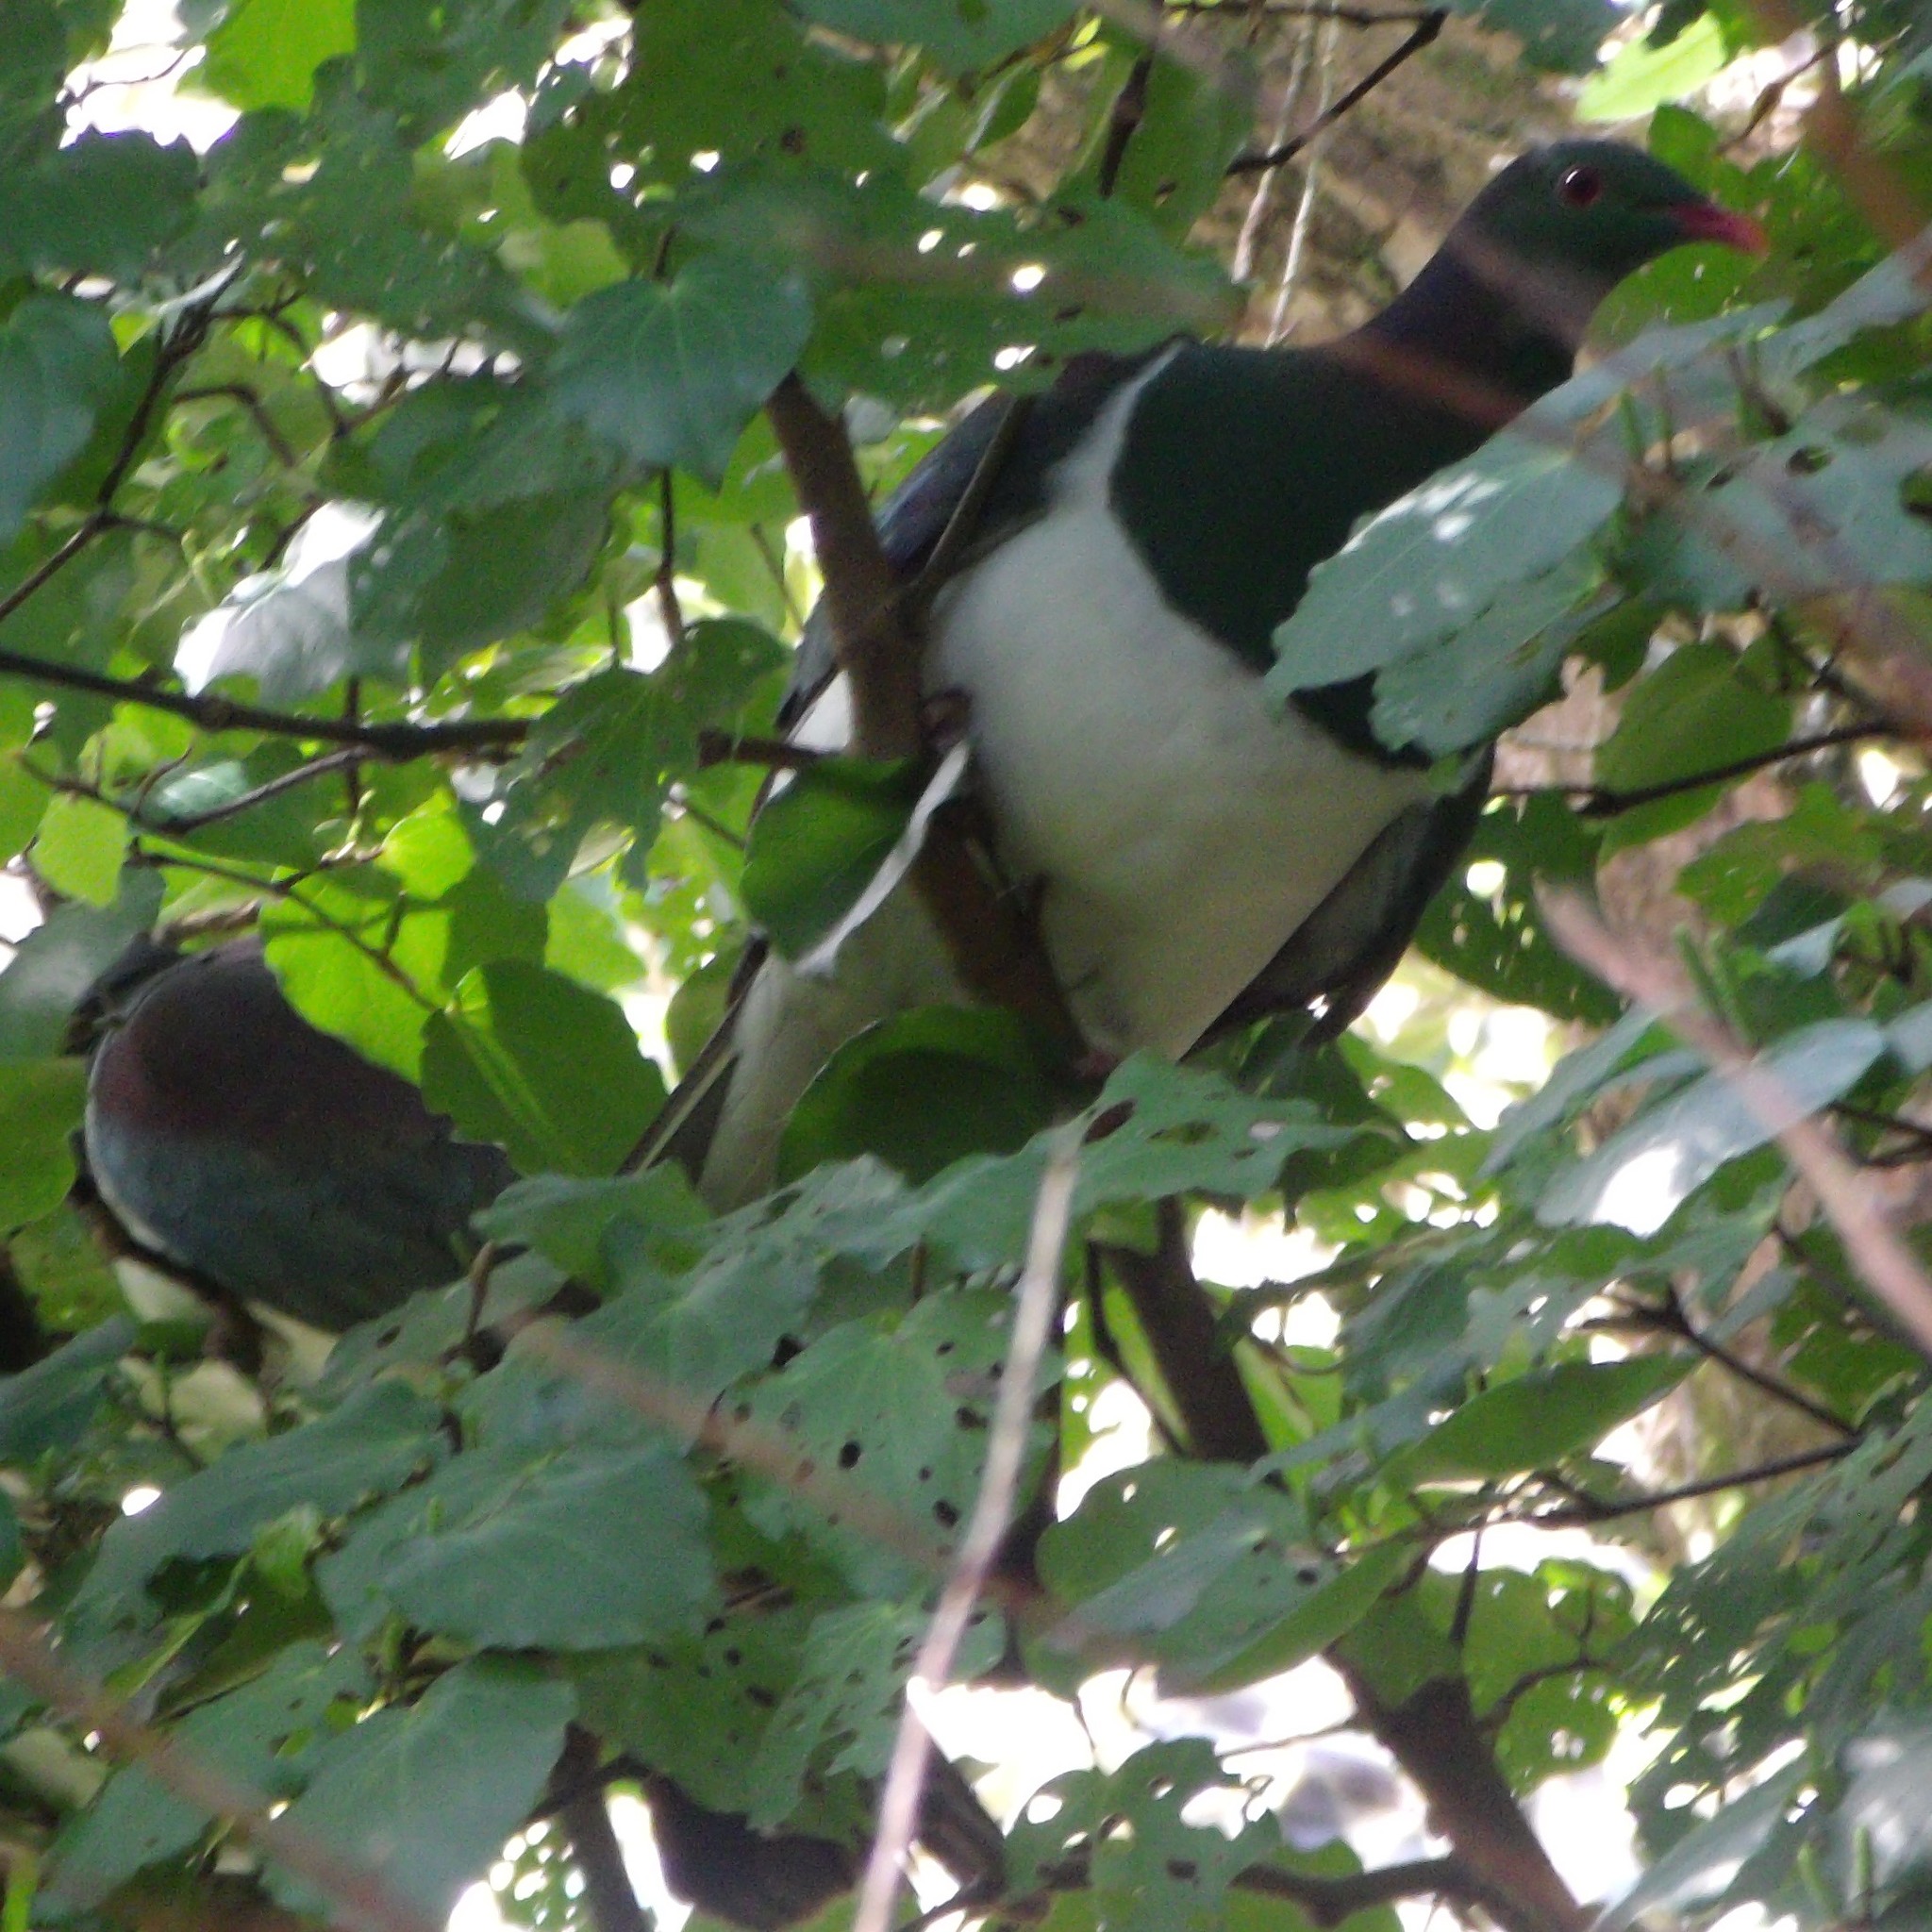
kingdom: Animalia
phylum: Chordata
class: Aves
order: Columbiformes
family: Columbidae
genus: Hemiphaga
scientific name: Hemiphaga novaeseelandiae
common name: New zealand pigeon
